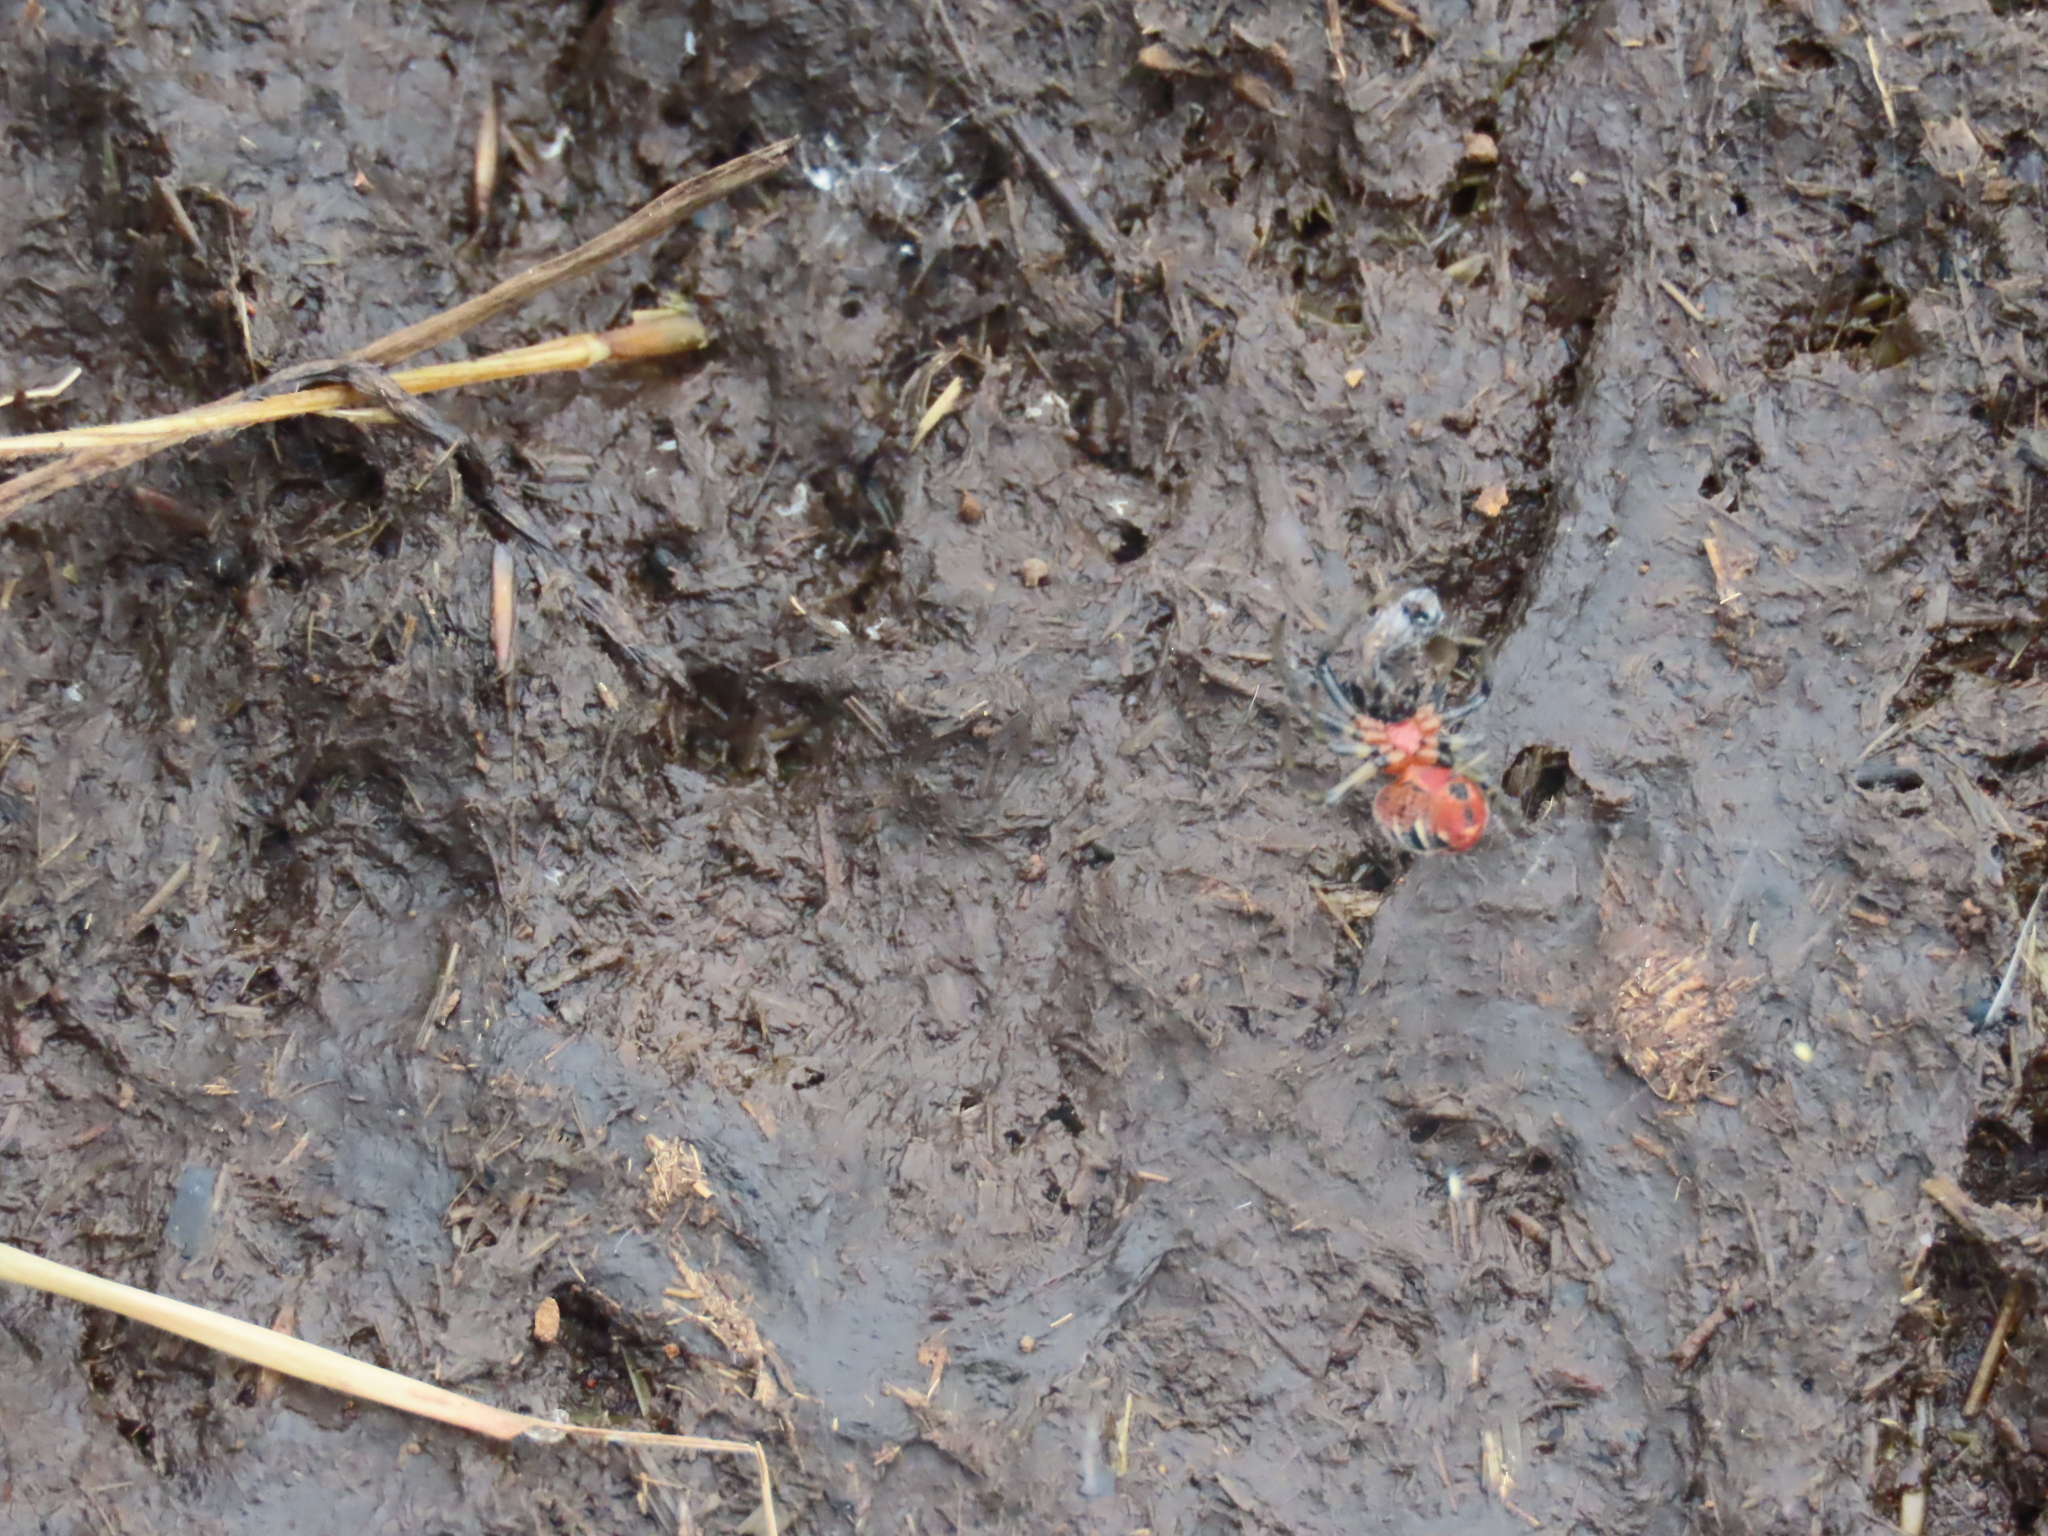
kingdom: Animalia
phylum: Arthropoda
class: Arachnida
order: Araneae
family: Araneidae
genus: Alpaida
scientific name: Alpaida versicolor
